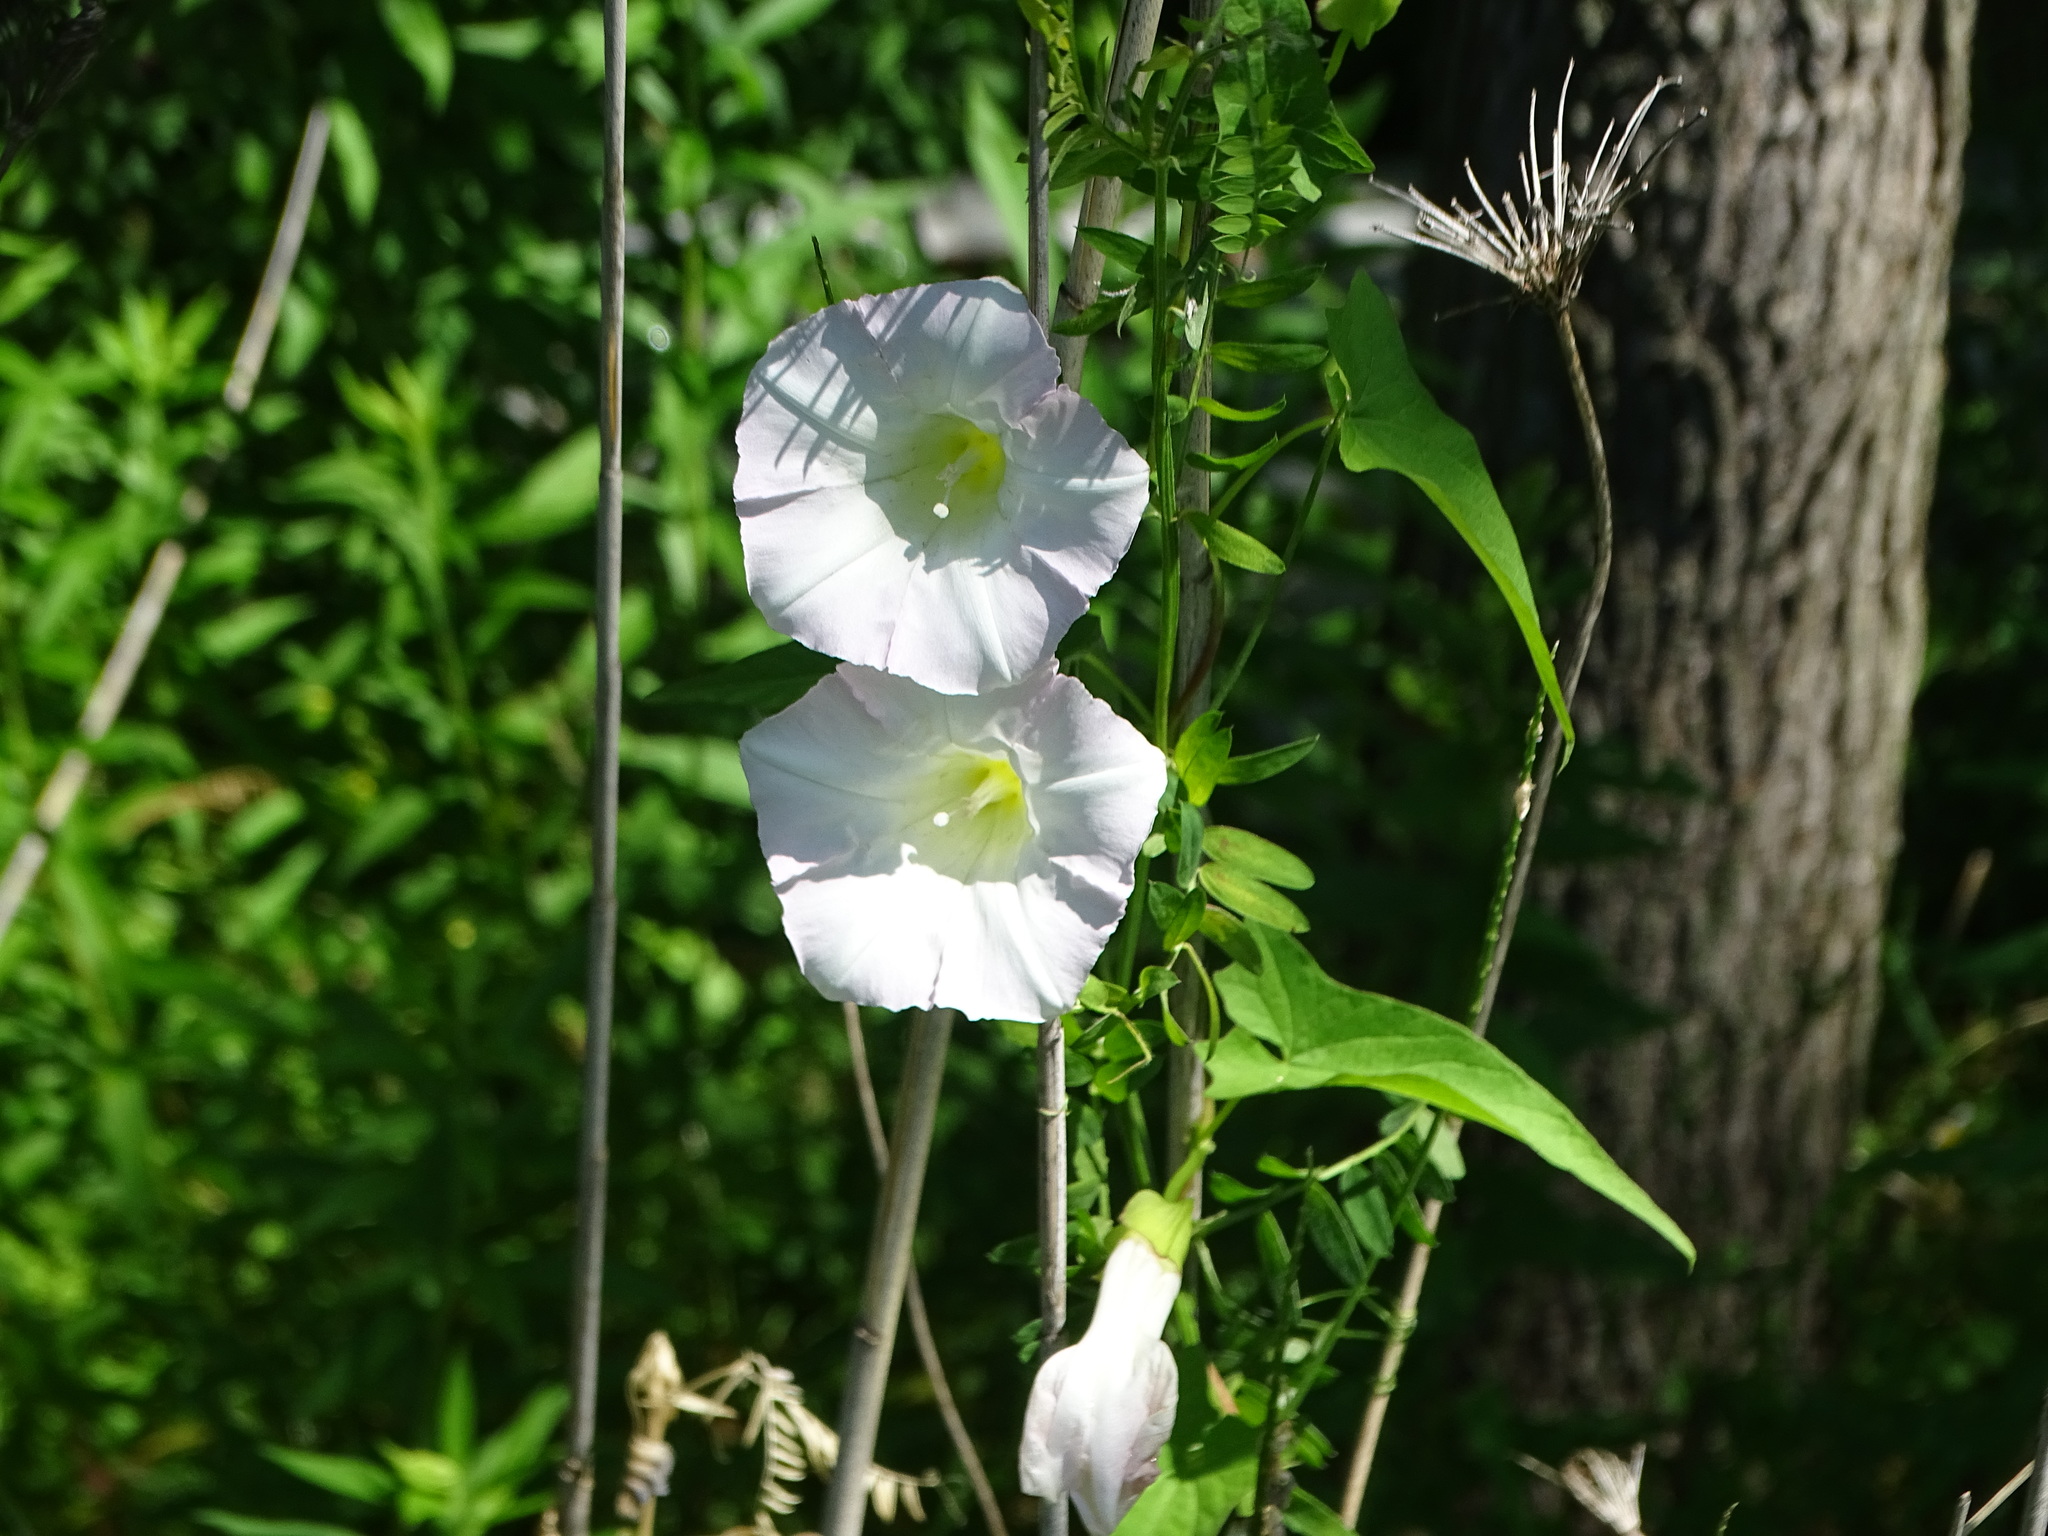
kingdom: Plantae
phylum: Tracheophyta
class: Magnoliopsida
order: Solanales
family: Convolvulaceae
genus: Calystegia
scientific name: Calystegia sepium
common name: Hedge bindweed
